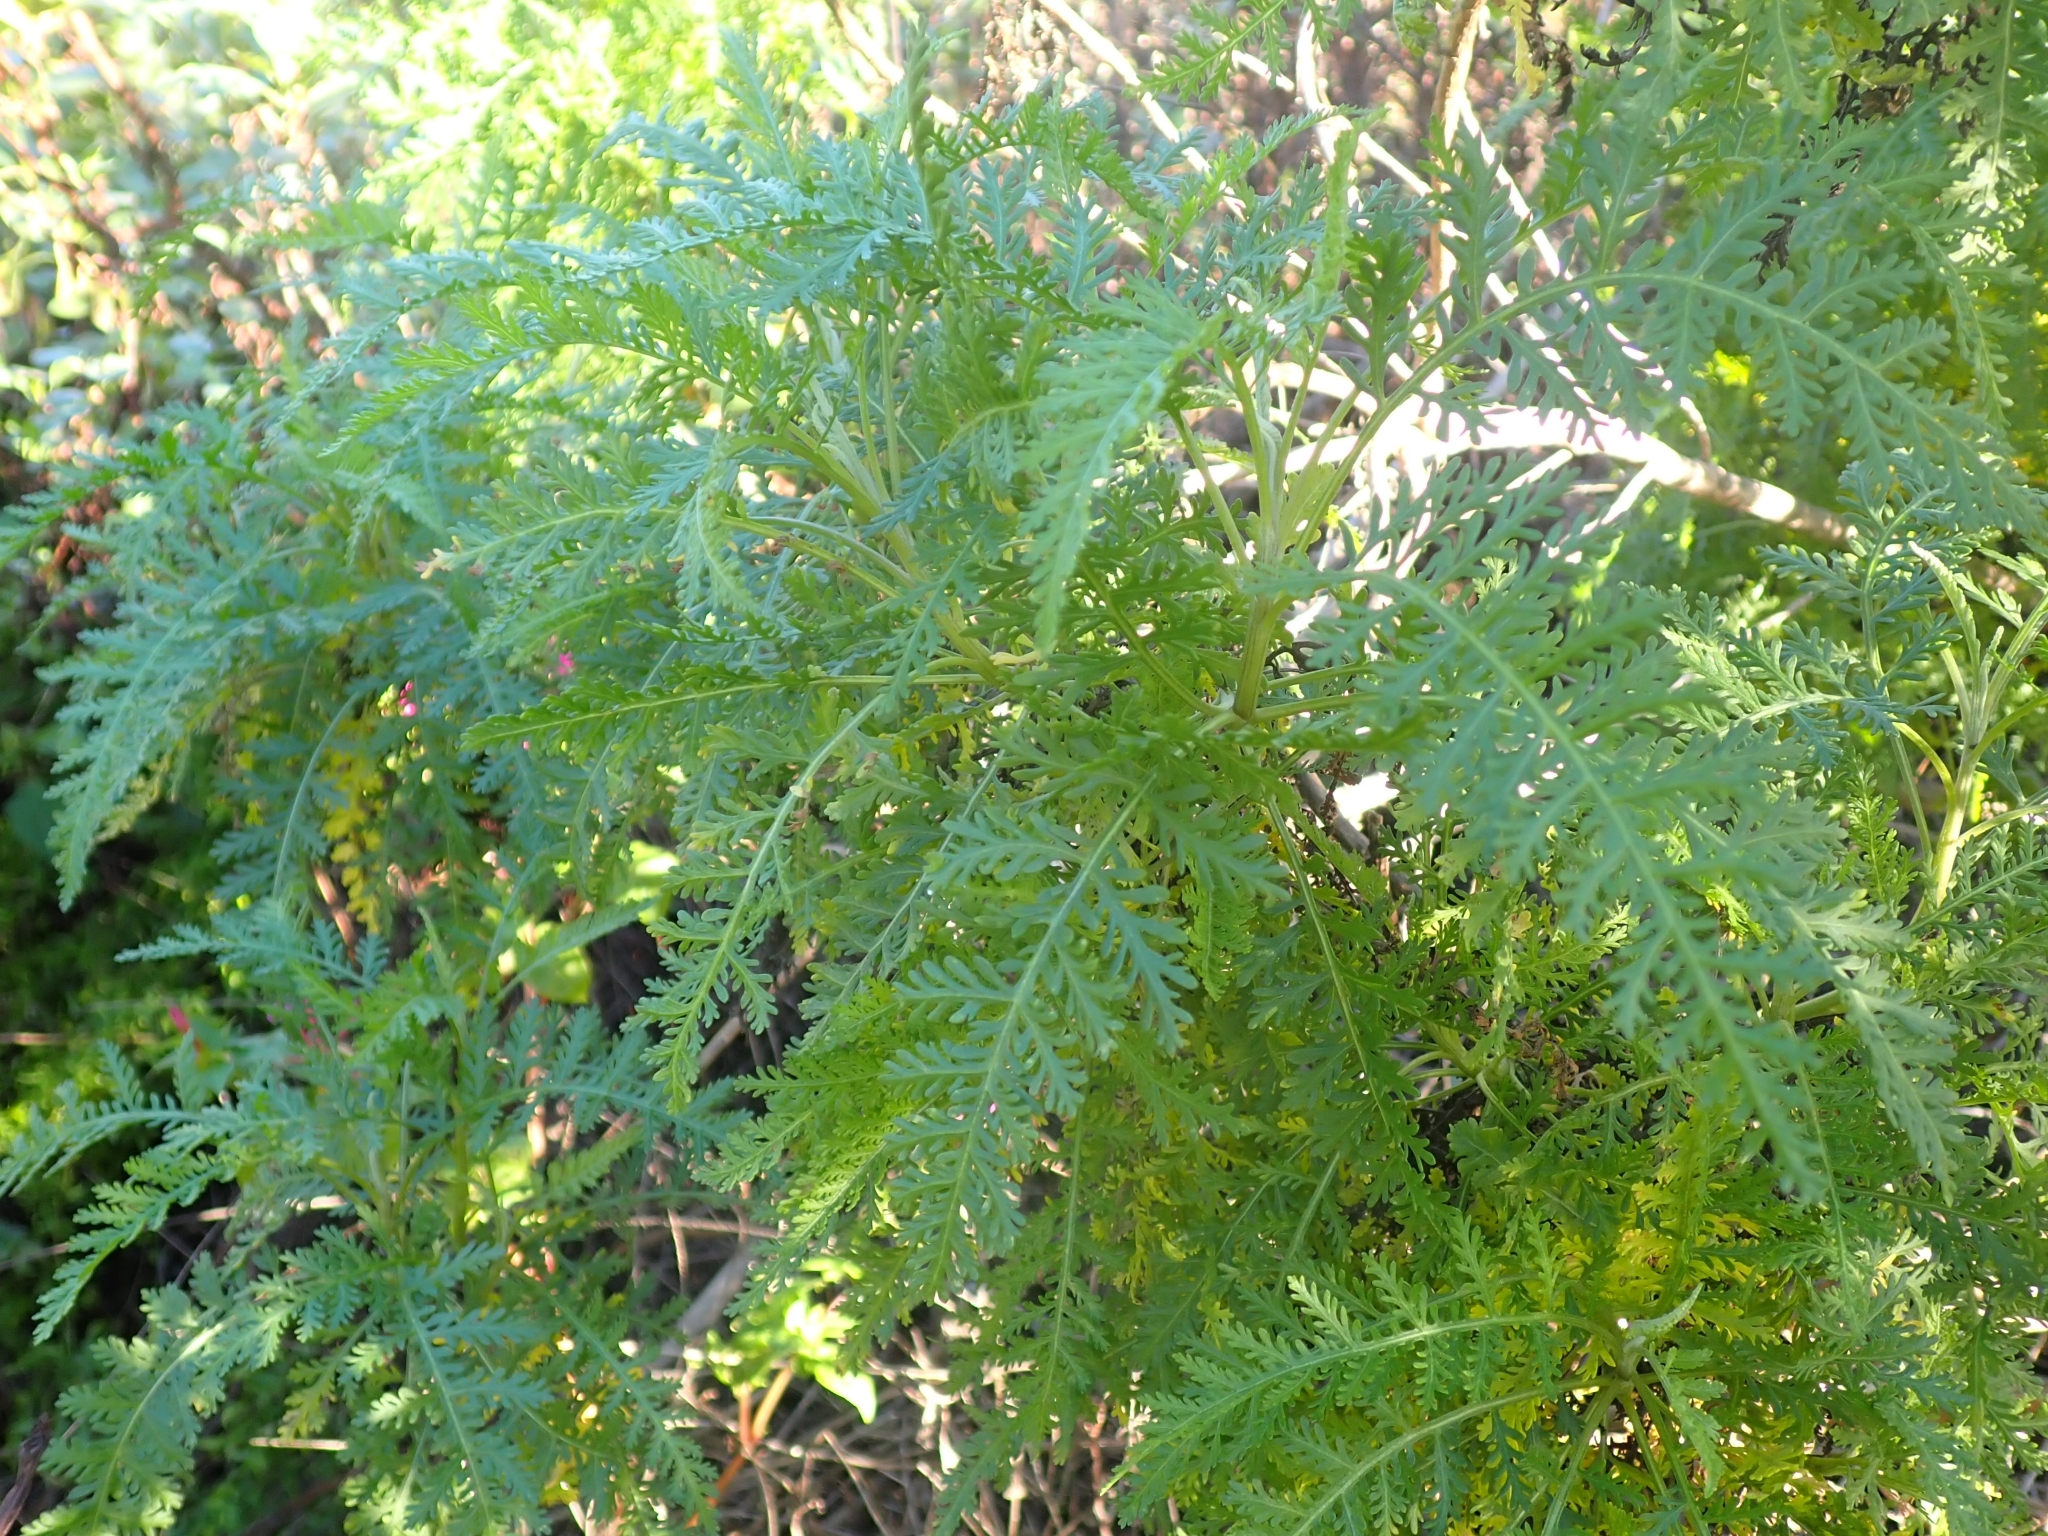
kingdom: Plantae
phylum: Tracheophyta
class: Magnoliopsida
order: Asterales
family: Asteraceae
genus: Gonospermum
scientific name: Gonospermum canariense
